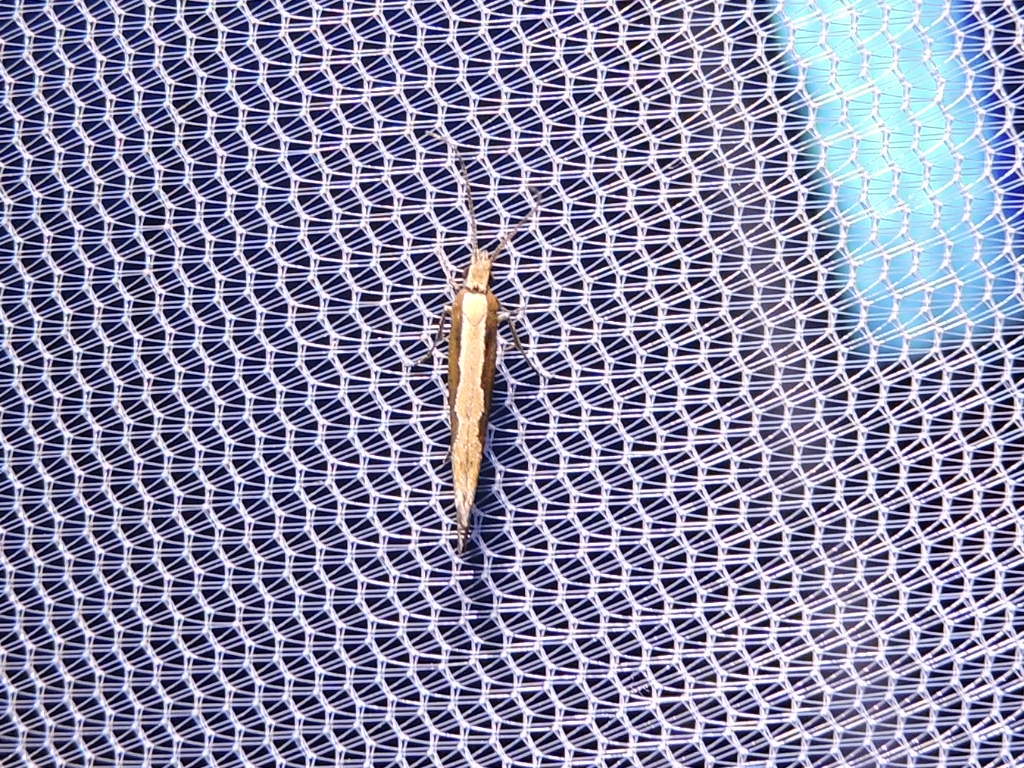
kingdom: Animalia
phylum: Arthropoda
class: Insecta
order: Lepidoptera
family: Plutellidae
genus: Plutella
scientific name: Plutella xylostella
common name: Diamond-back moth
